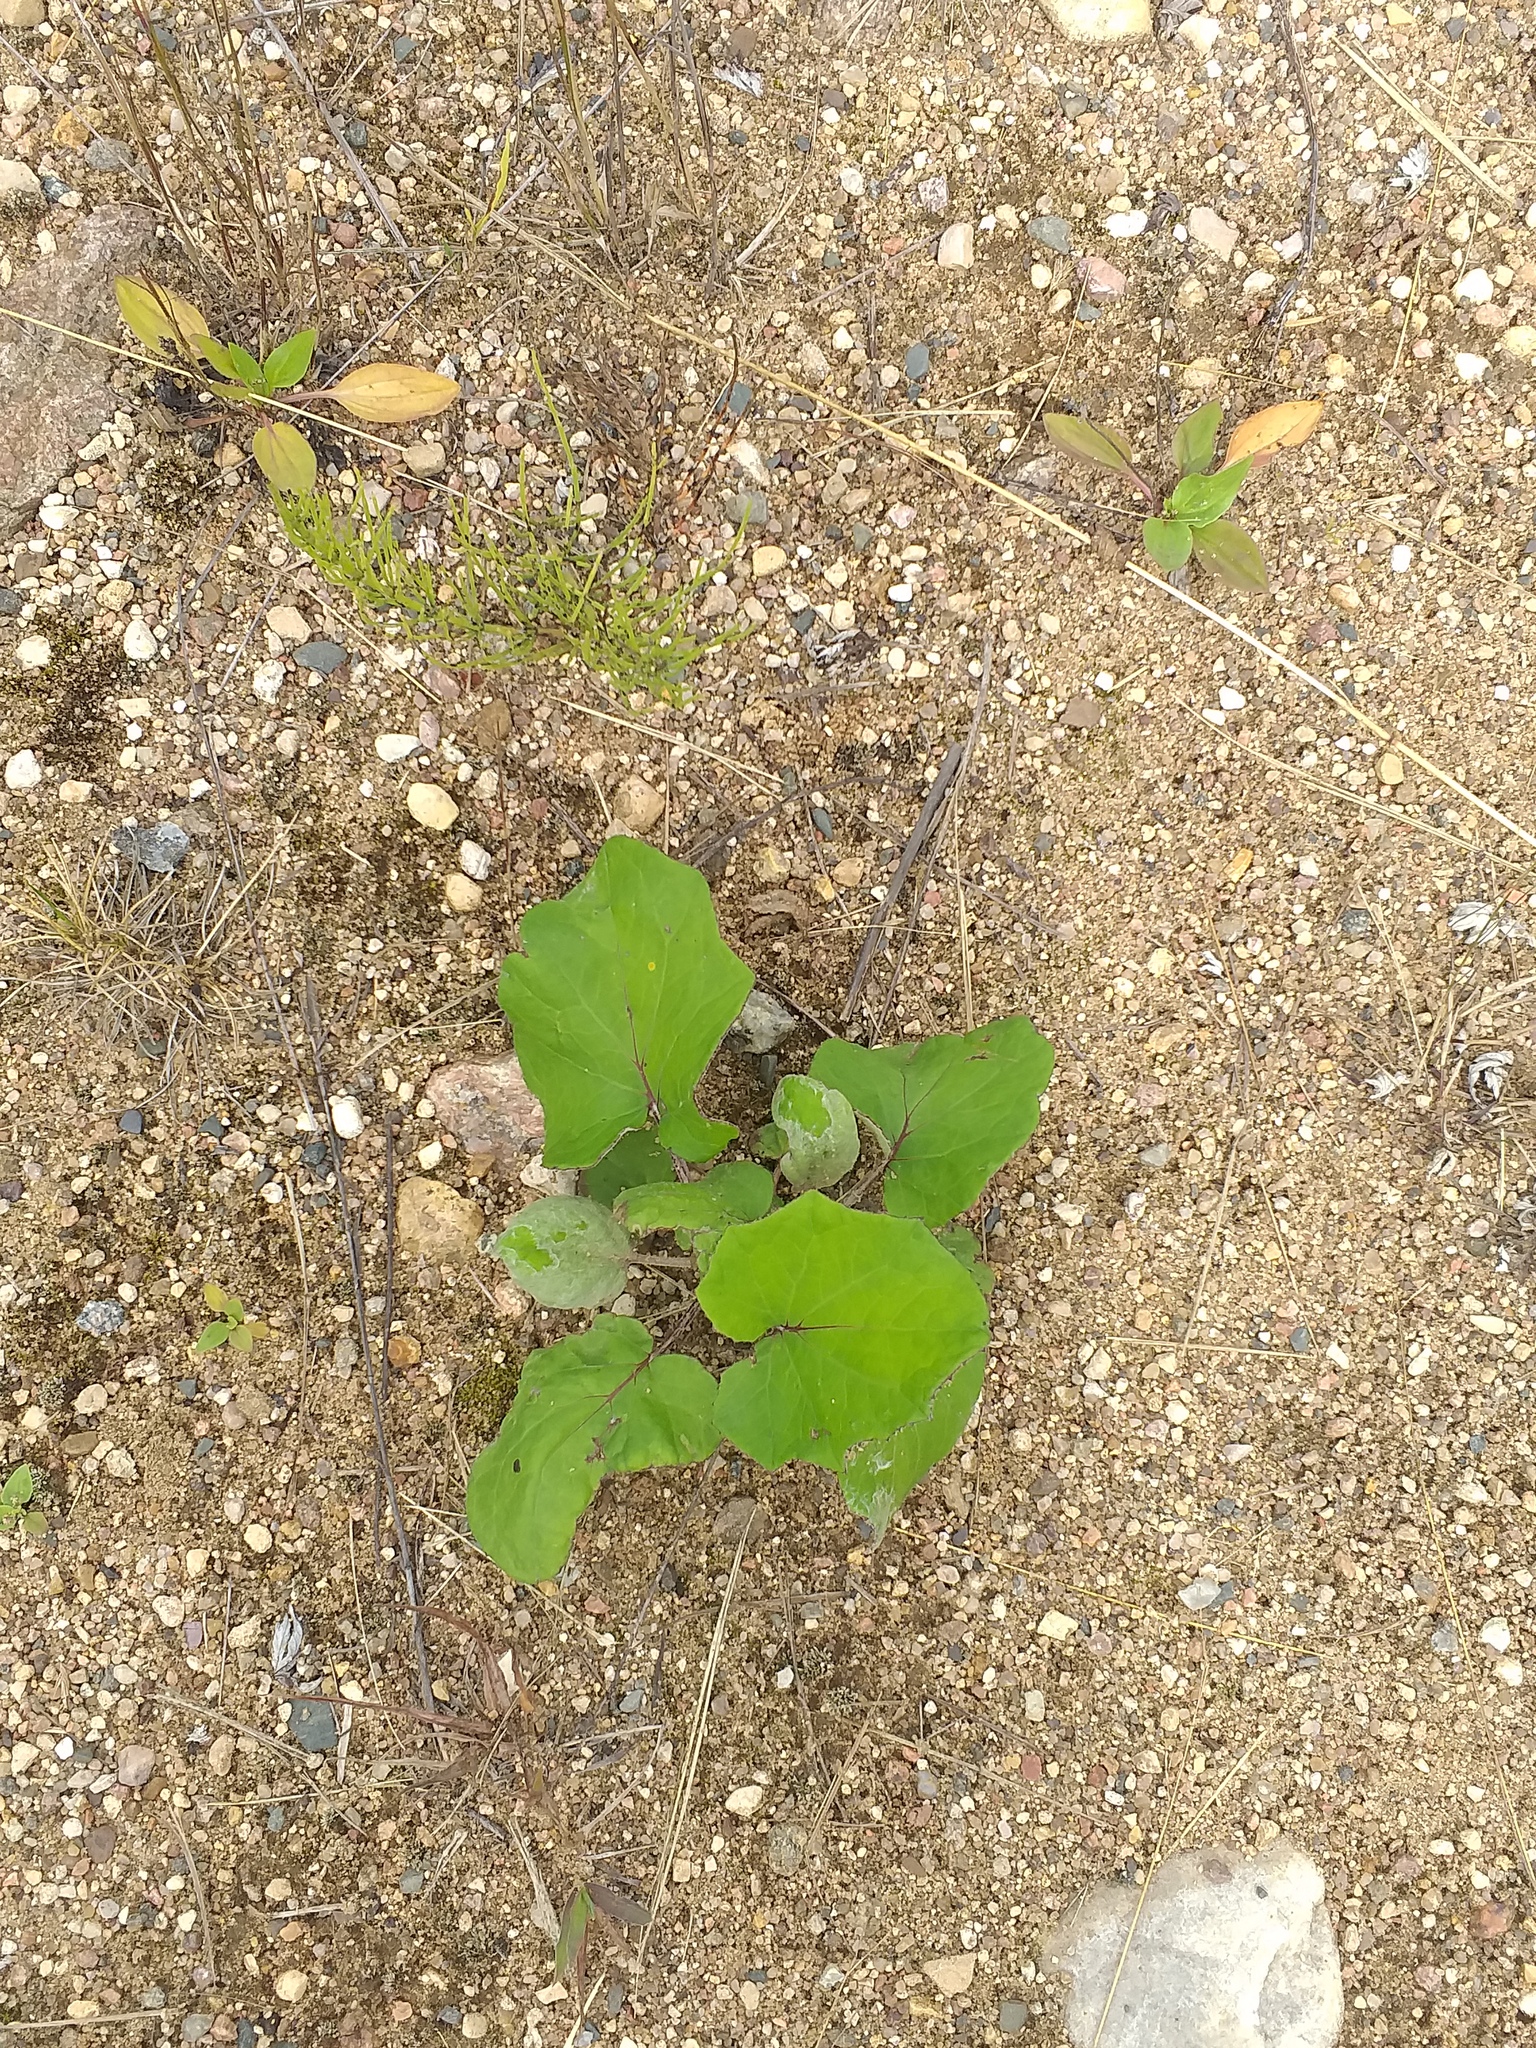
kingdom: Plantae
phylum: Tracheophyta
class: Magnoliopsida
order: Asterales
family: Asteraceae
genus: Tussilago
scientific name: Tussilago farfara
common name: Coltsfoot
